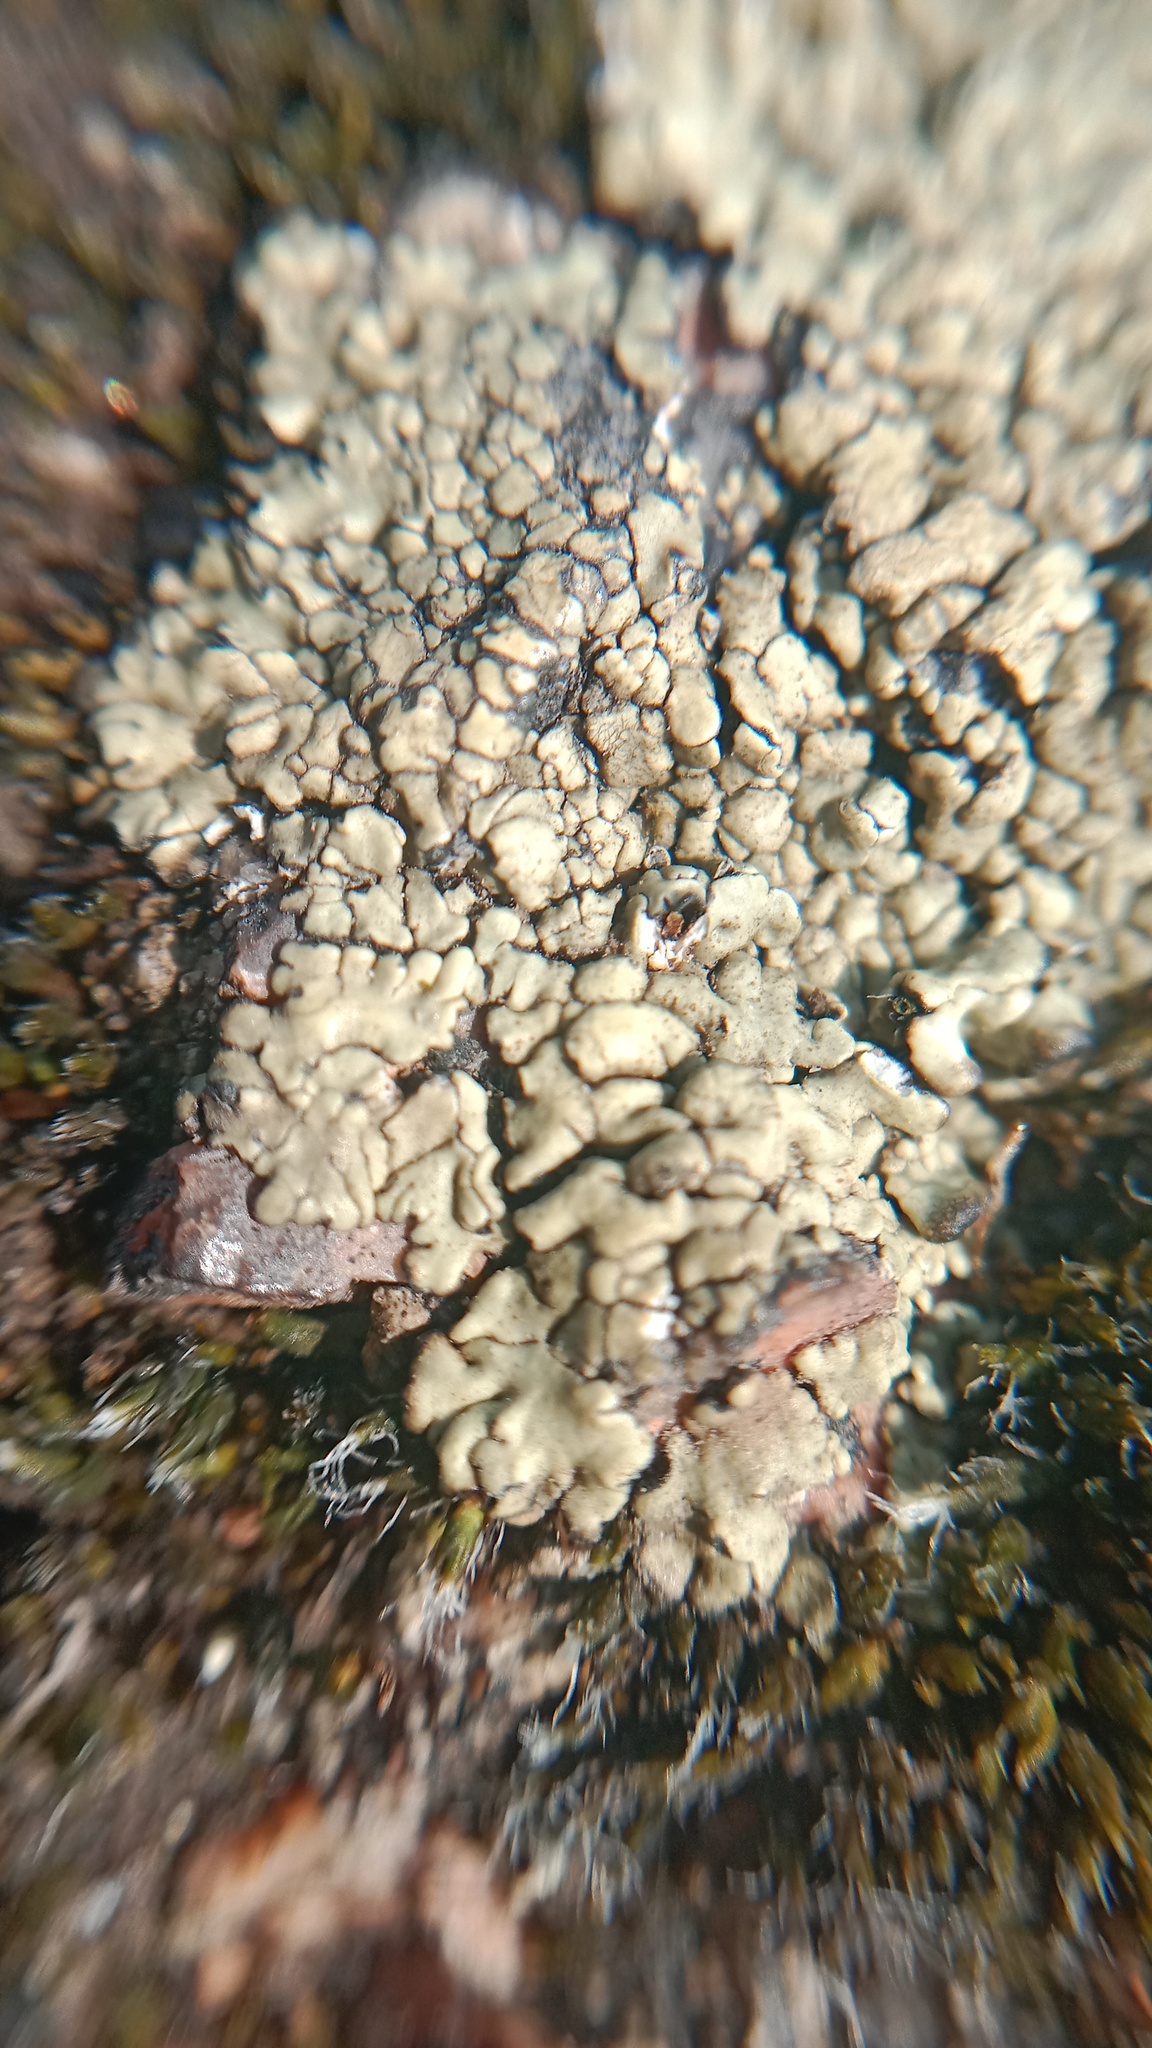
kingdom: Fungi
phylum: Ascomycota
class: Lecanoromycetes
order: Lecanorales
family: Lecanoraceae
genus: Protoparmeliopsis
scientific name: Protoparmeliopsis muralis
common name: Stonewall rim lichen
